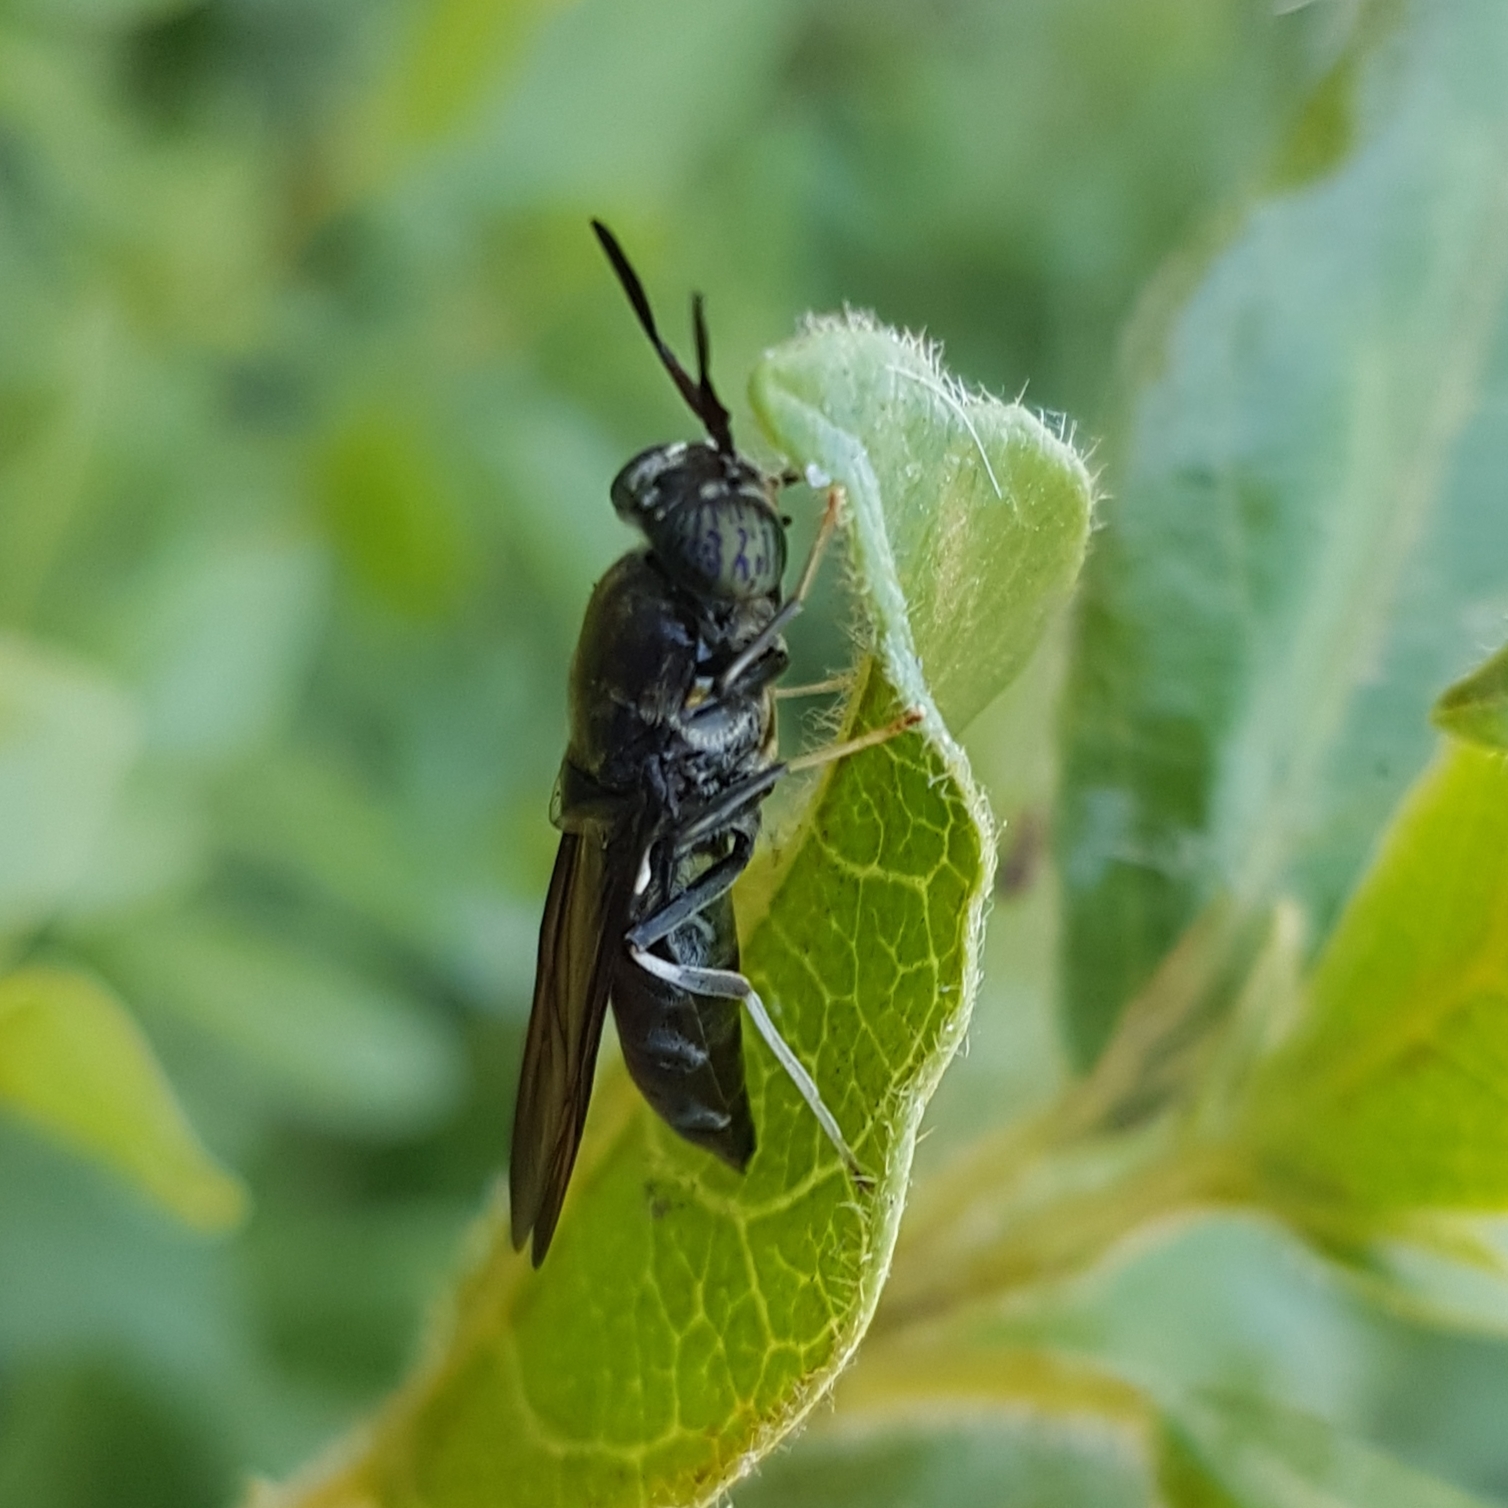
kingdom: Animalia
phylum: Arthropoda
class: Insecta
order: Diptera
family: Stratiomyidae
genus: Hermetia
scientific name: Hermetia illucens
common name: Black soldier fly
